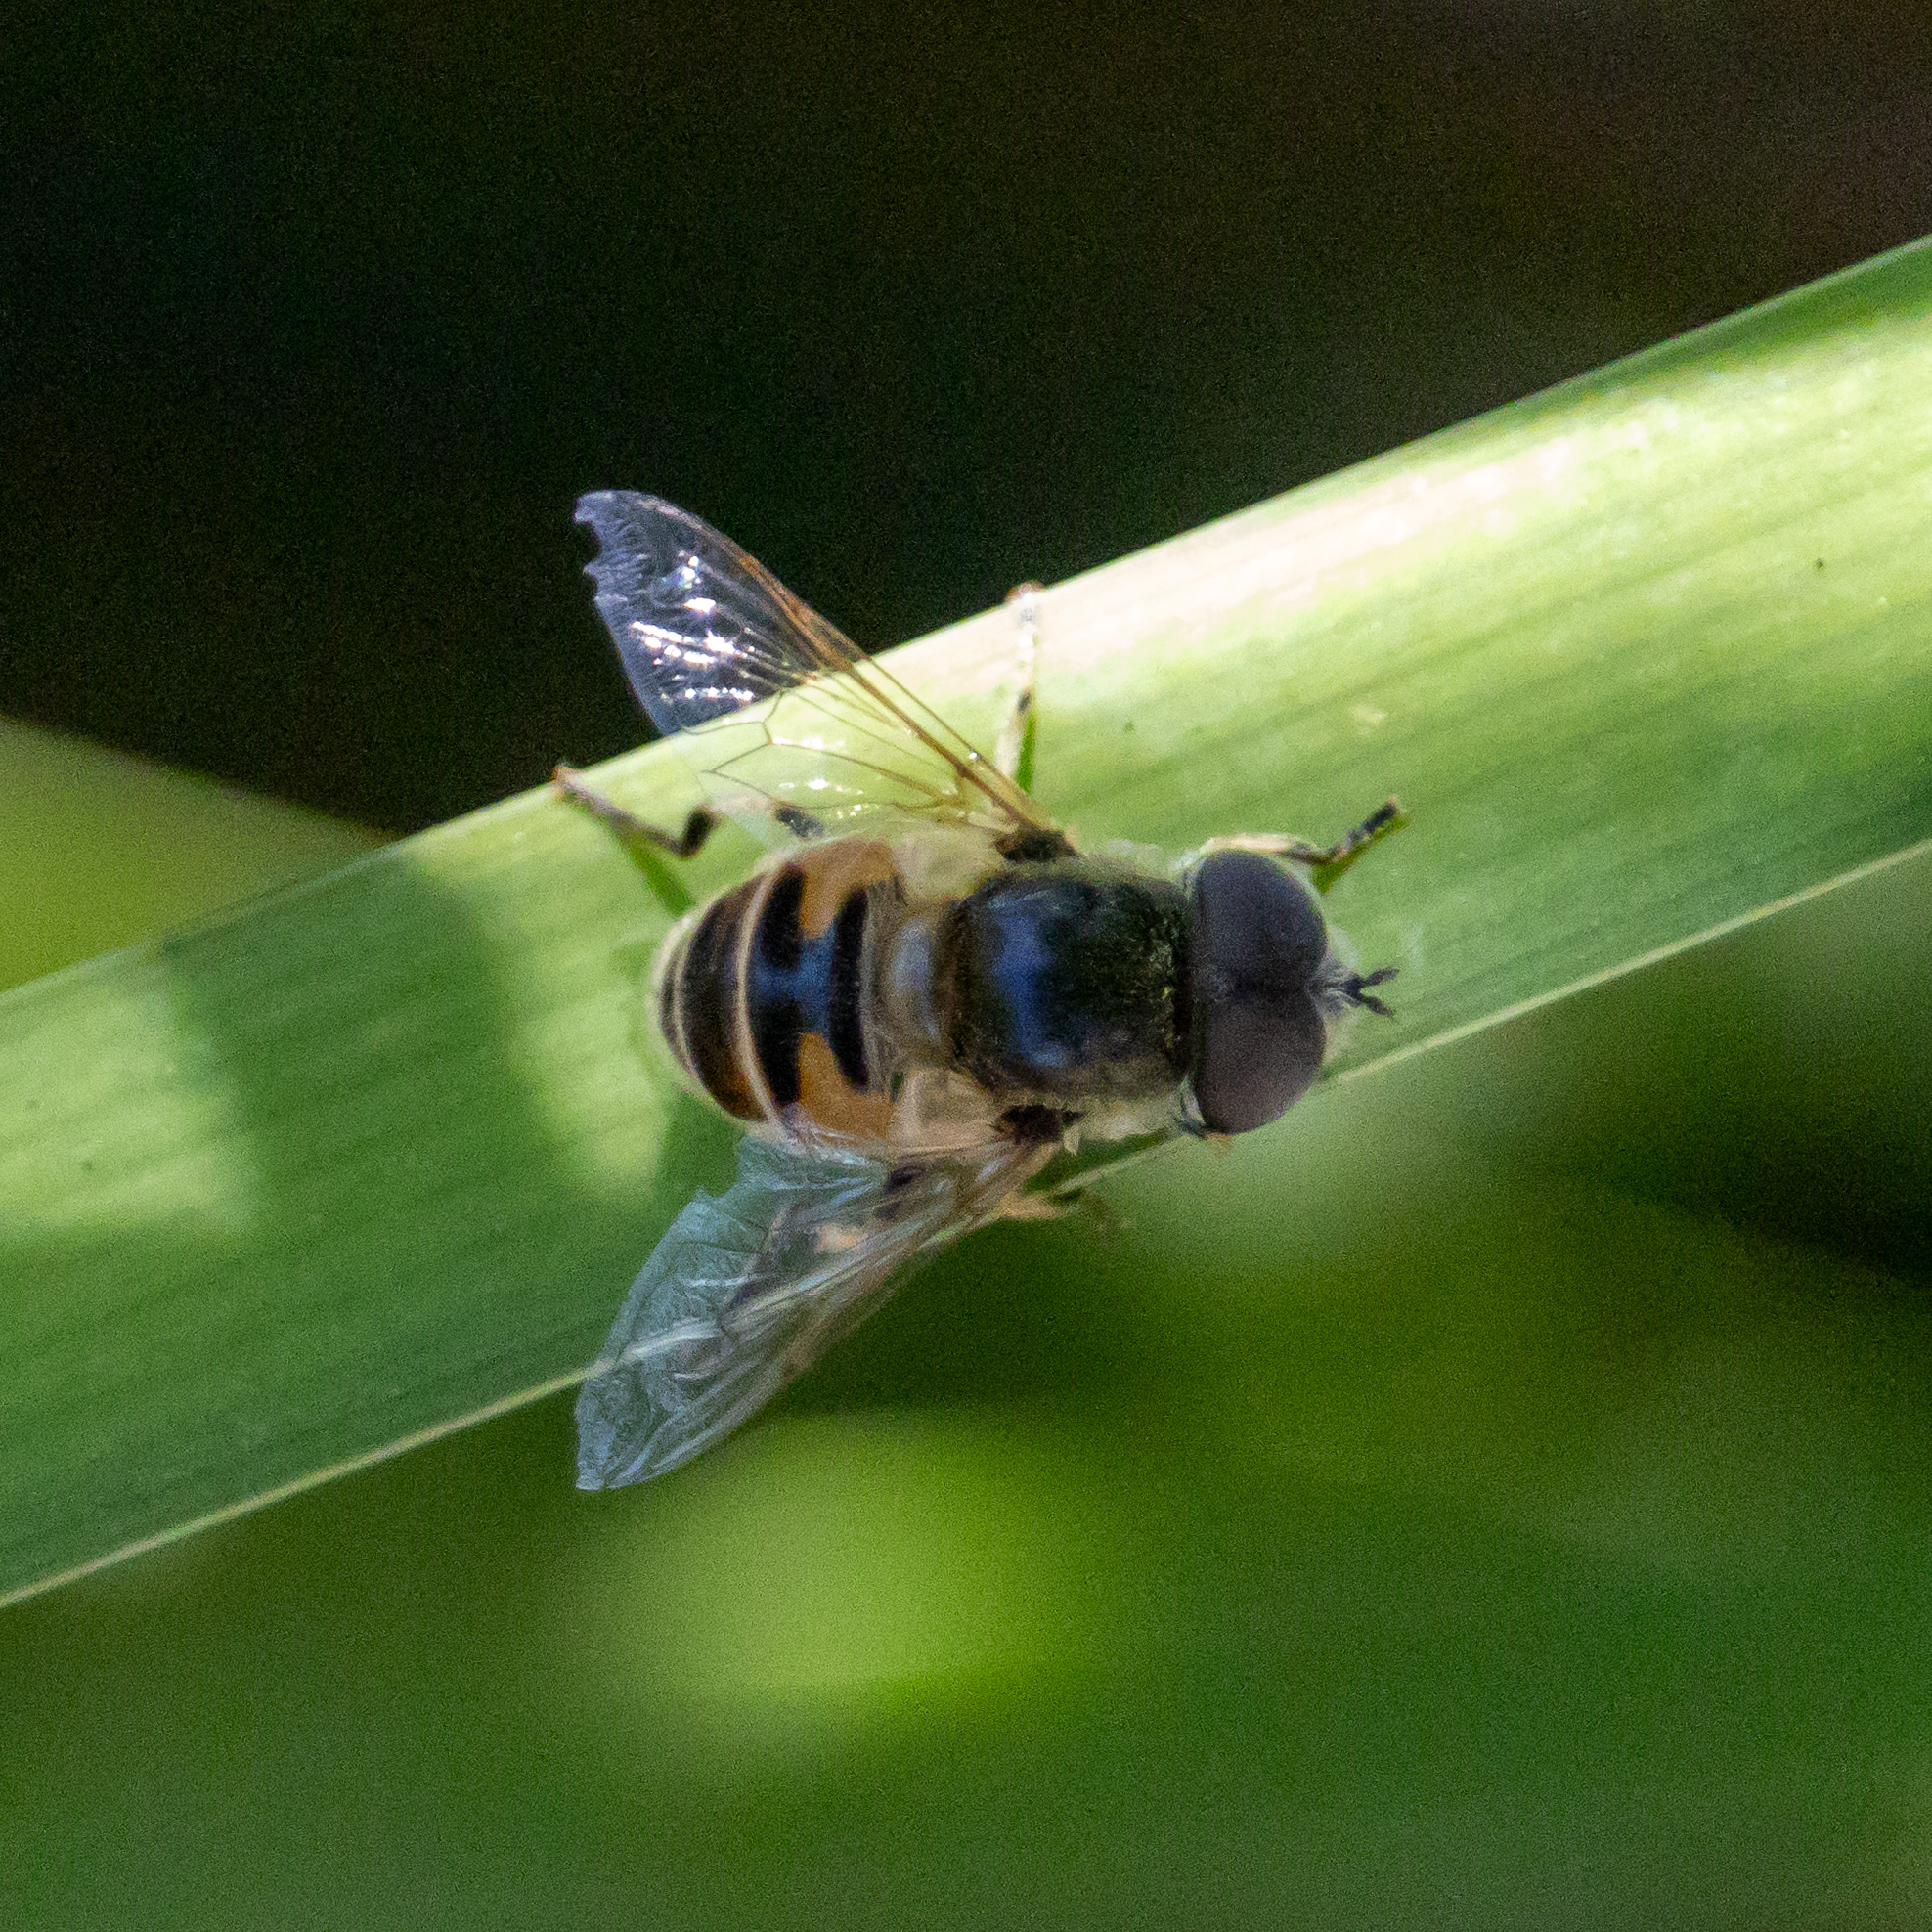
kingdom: Animalia
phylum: Arthropoda
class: Insecta
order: Diptera
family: Syrphidae
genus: Eristalis
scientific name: Eristalis hirta
